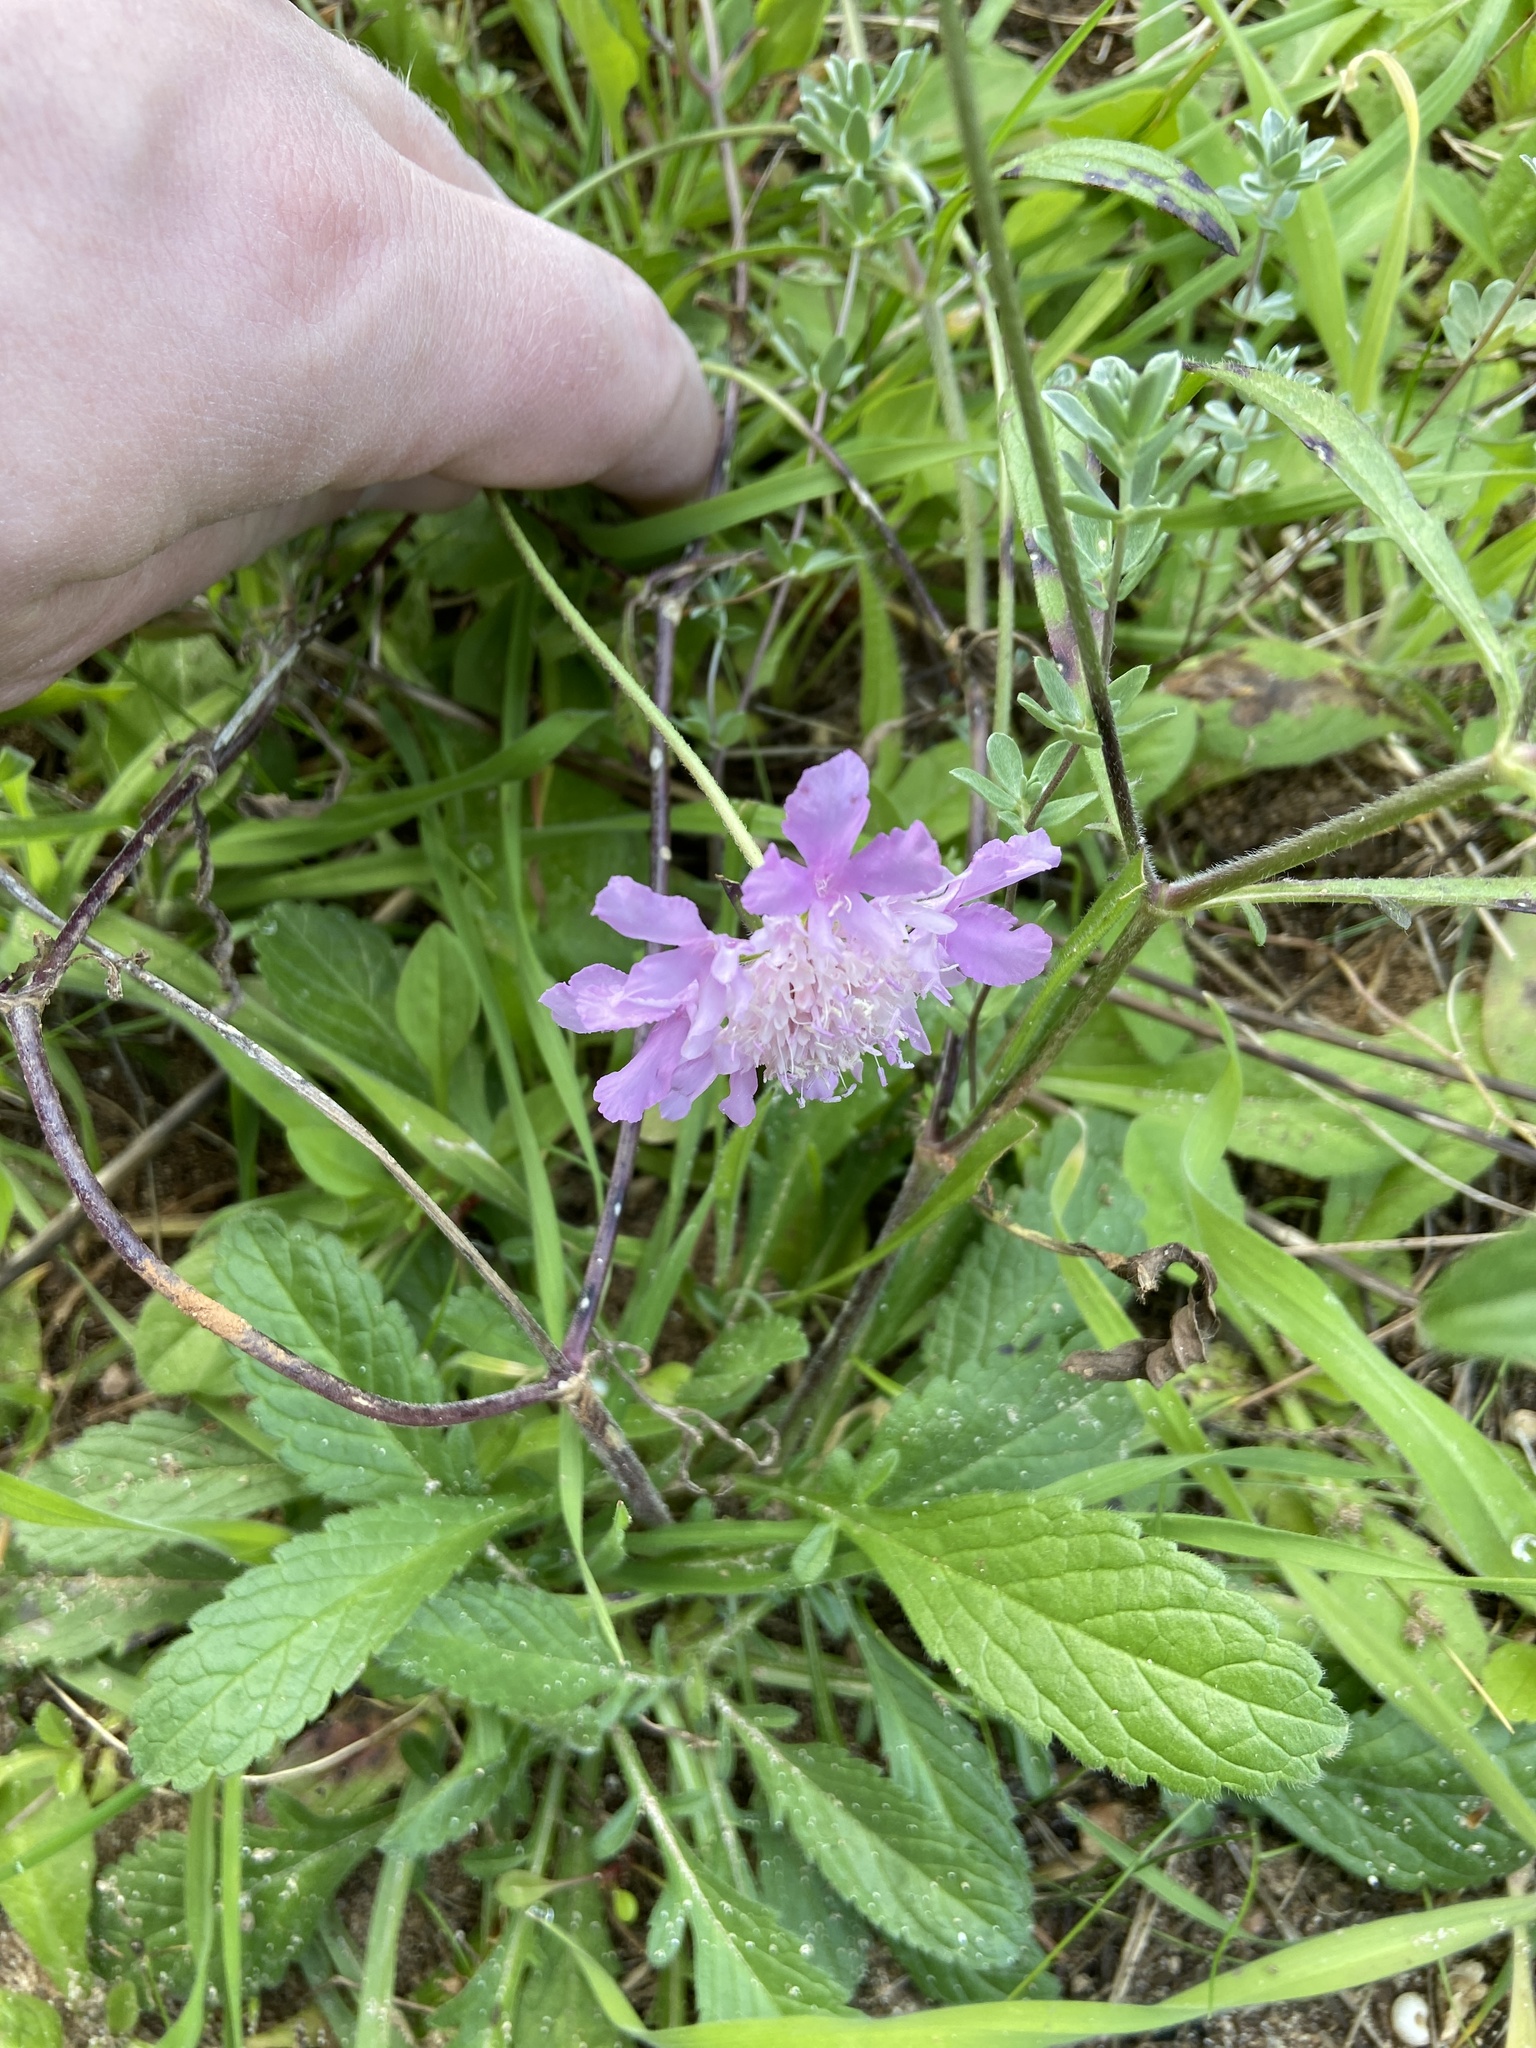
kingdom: Plantae
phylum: Tracheophyta
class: Magnoliopsida
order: Dipsacales
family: Caprifoliaceae
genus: Sixalix
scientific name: Sixalix atropurpurea
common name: Sweet scabious
